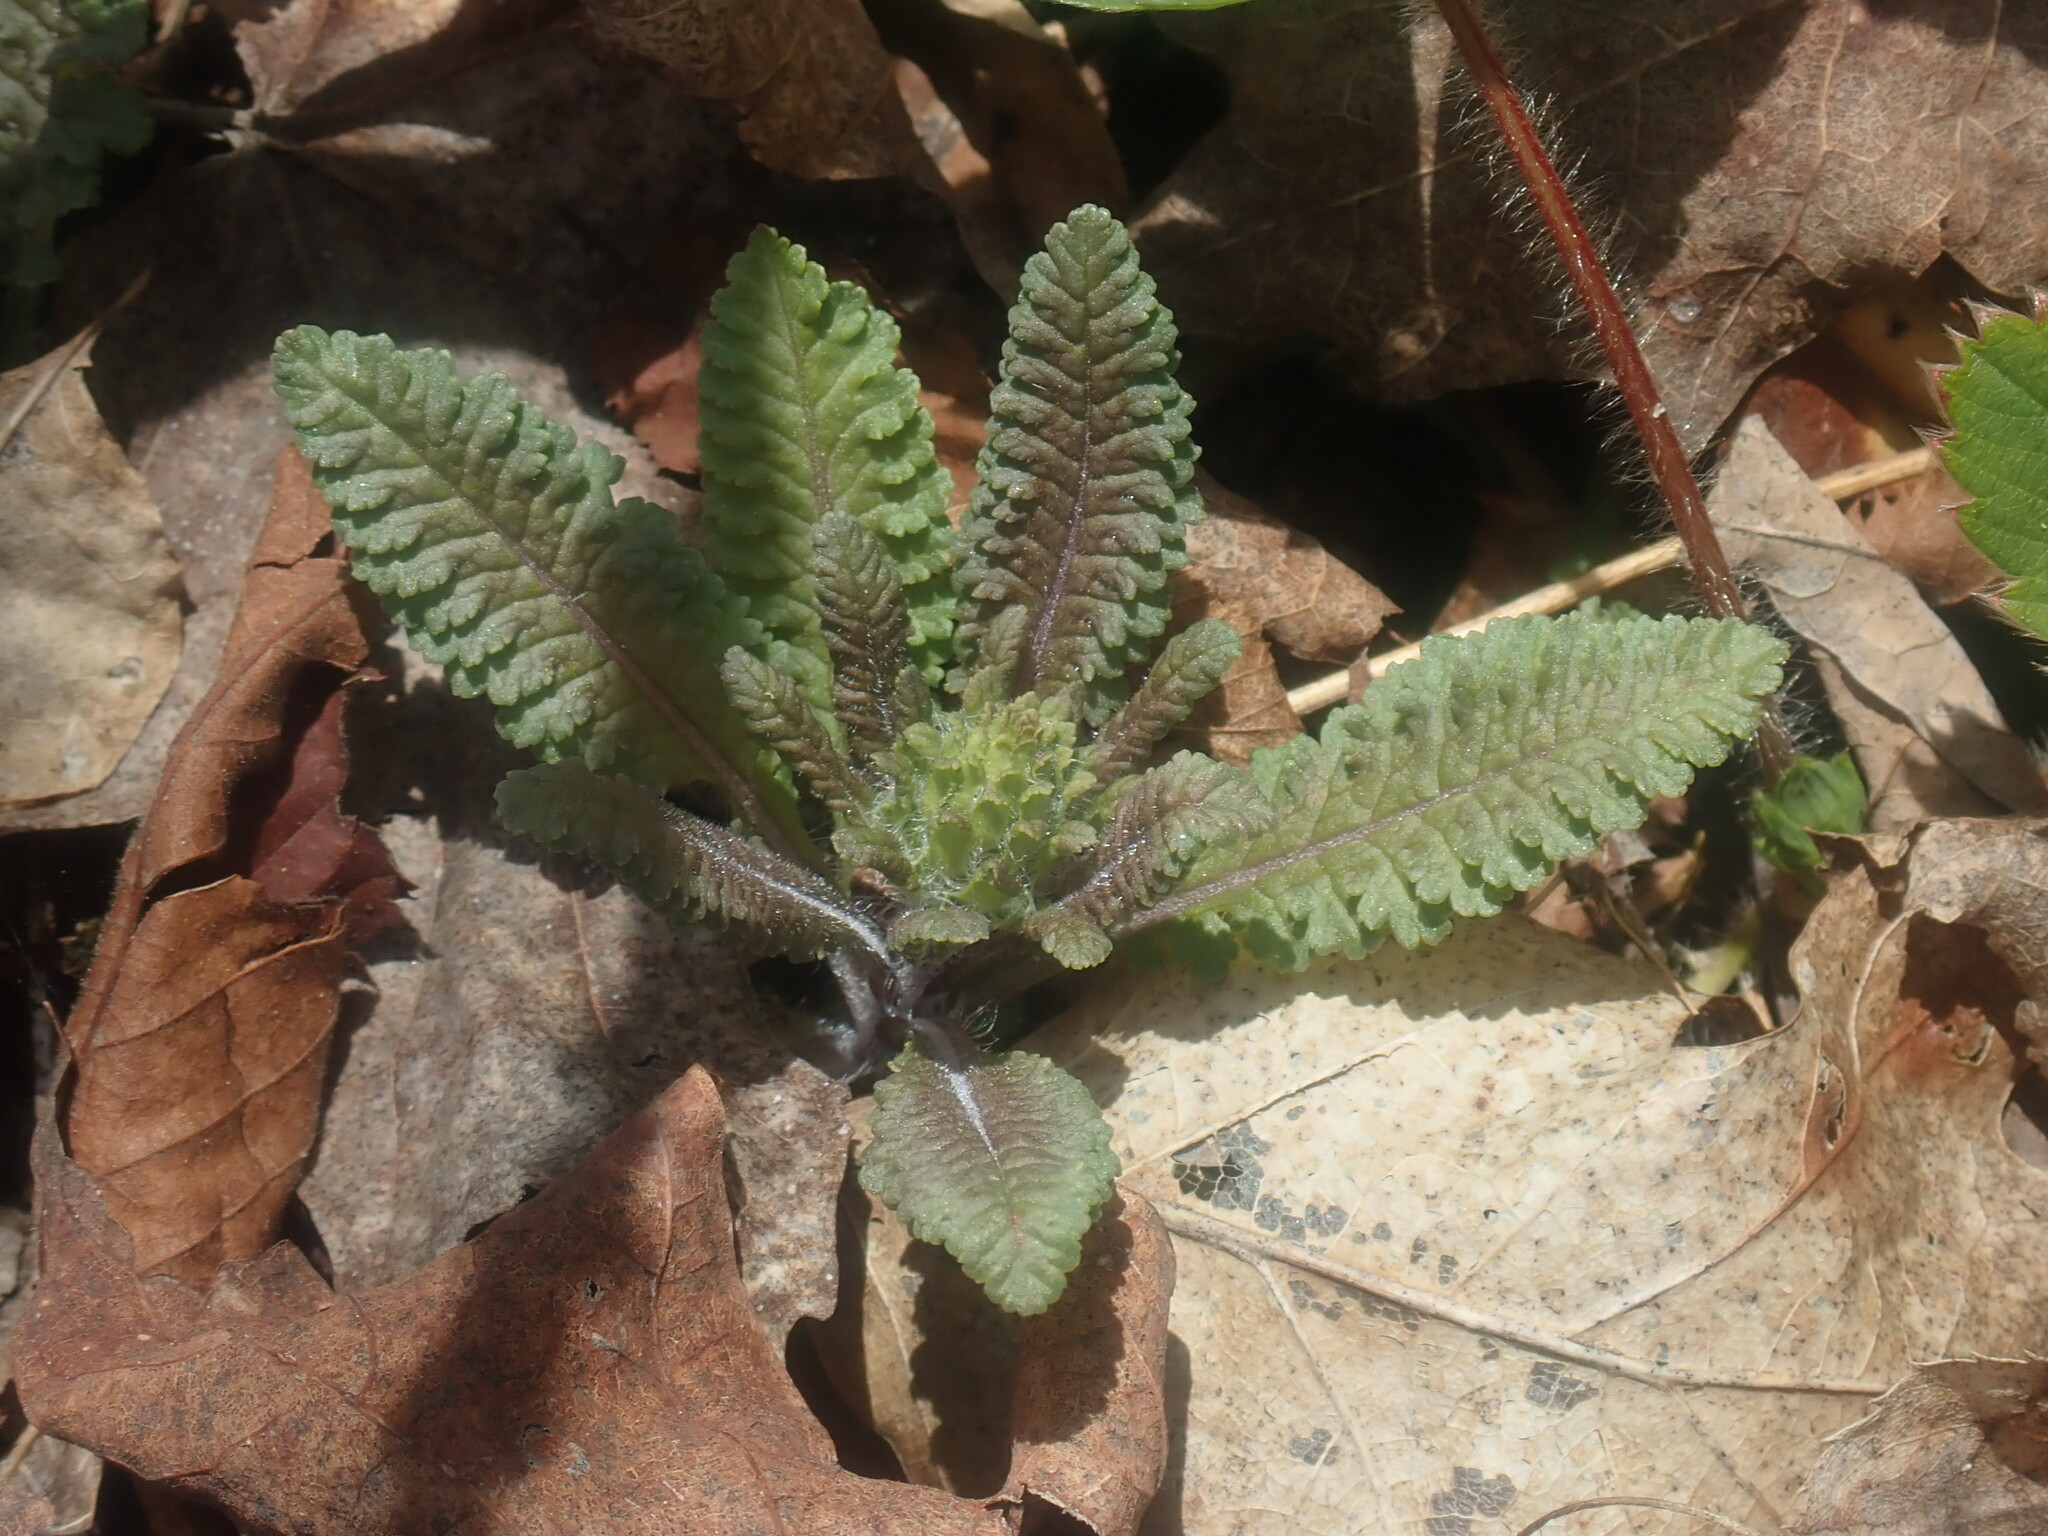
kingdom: Plantae
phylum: Tracheophyta
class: Magnoliopsida
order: Lamiales
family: Orobanchaceae
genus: Pedicularis
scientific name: Pedicularis canadensis
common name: Early lousewort
